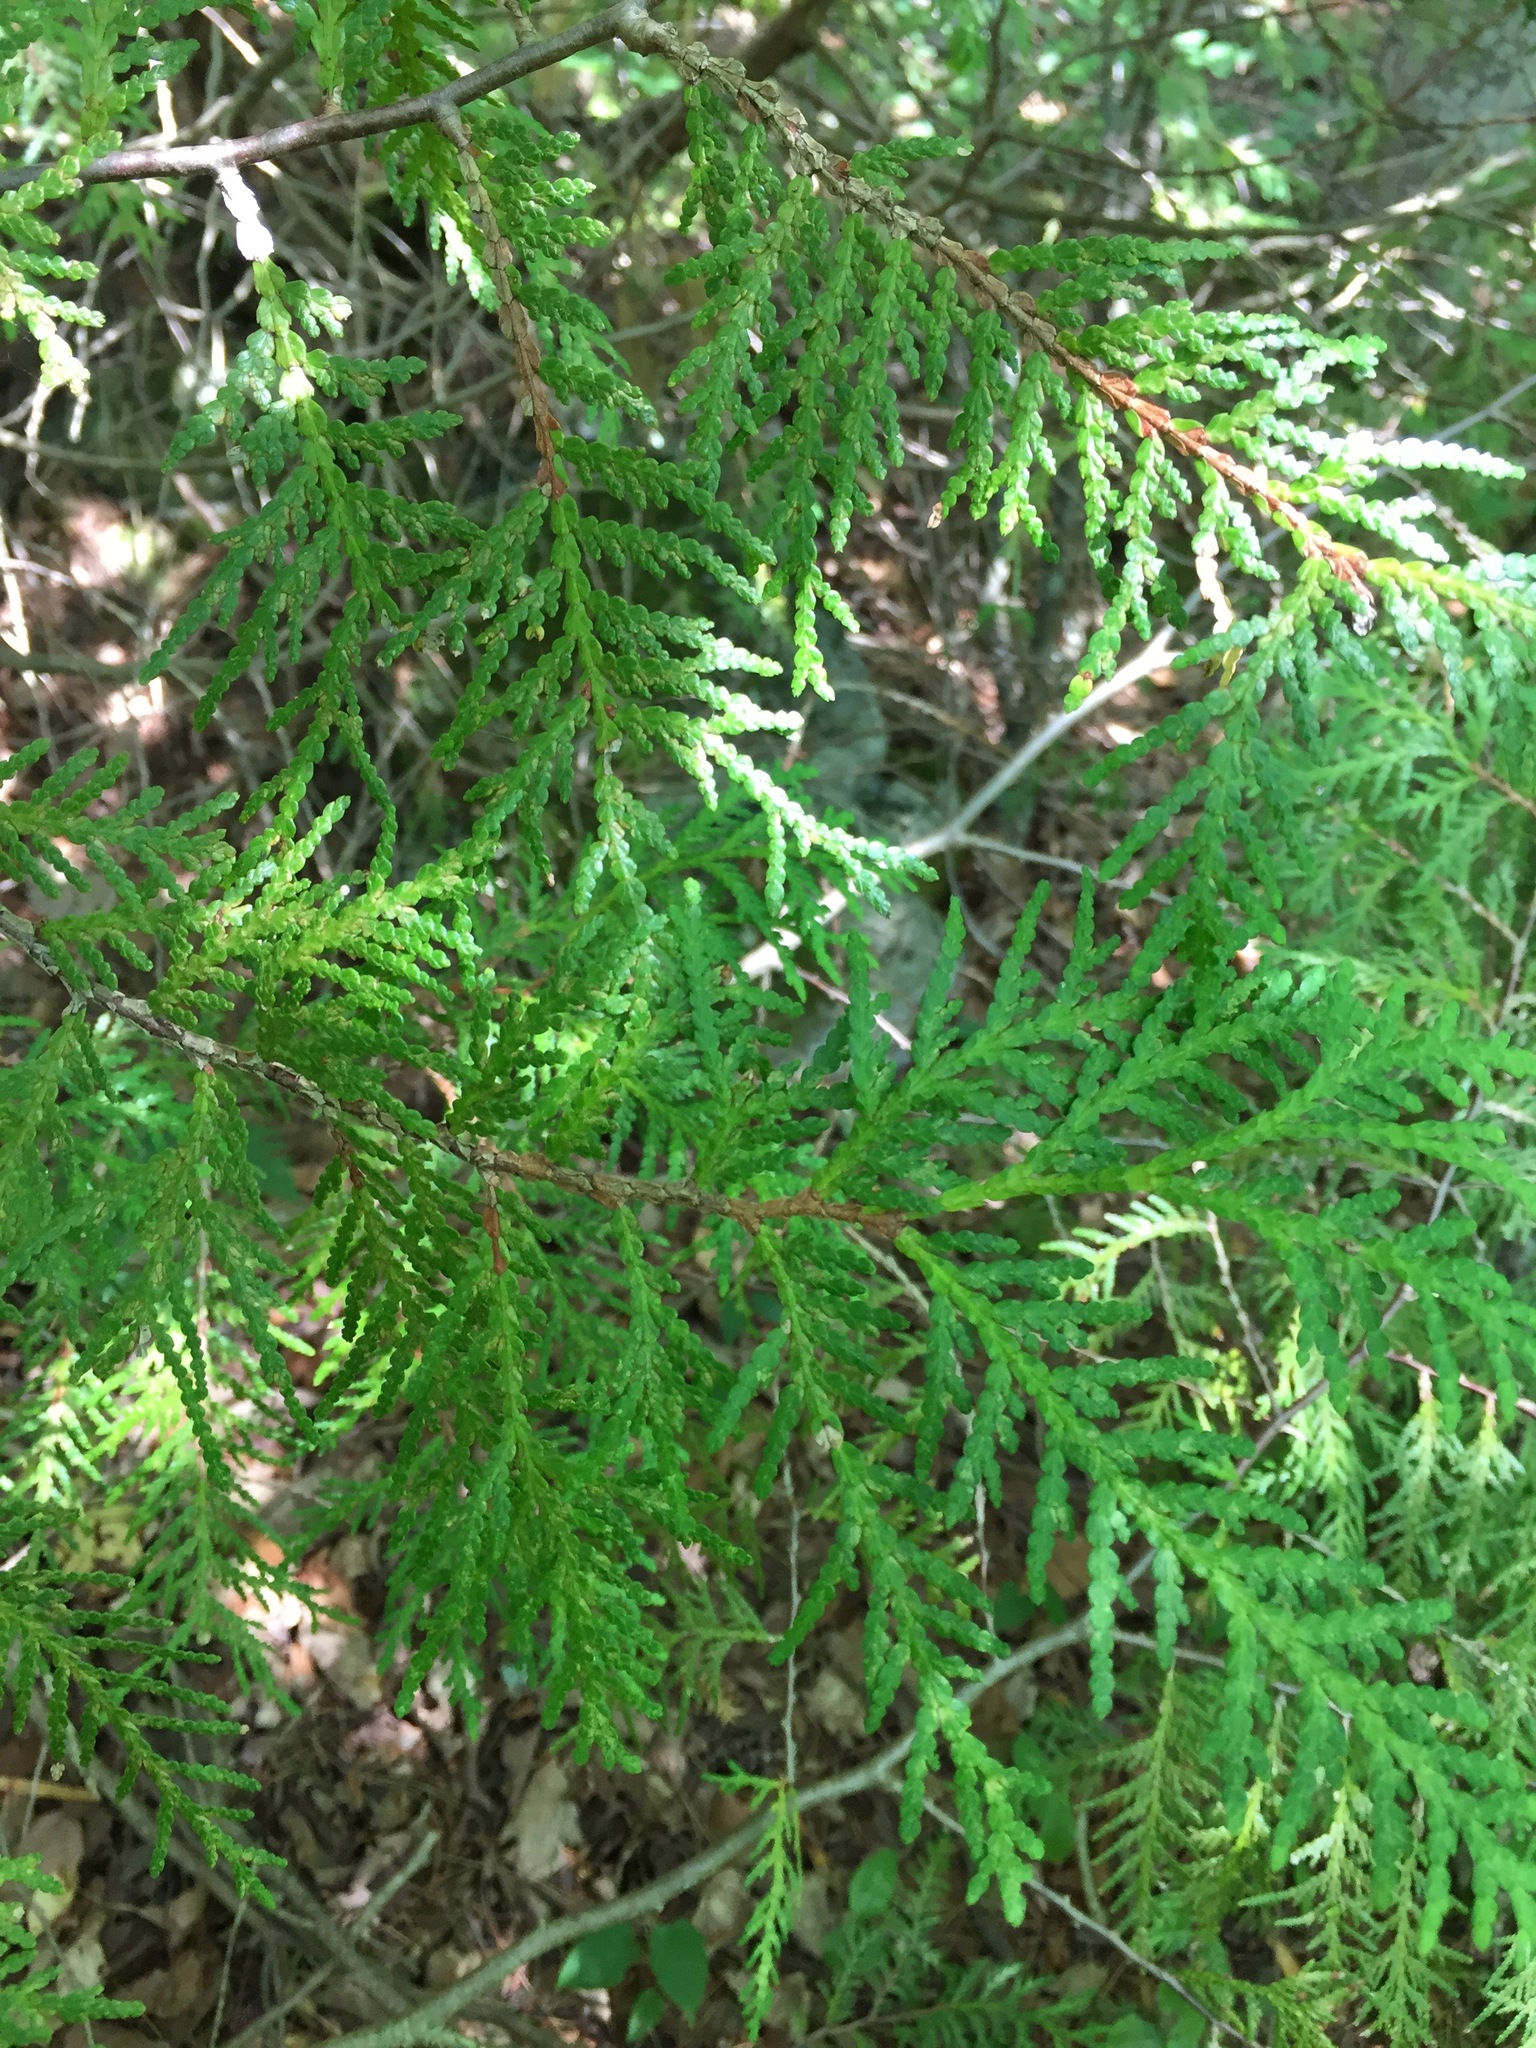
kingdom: Plantae
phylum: Tracheophyta
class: Pinopsida
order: Pinales
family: Cupressaceae
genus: Thuja
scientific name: Thuja occidentalis
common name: Northern white-cedar
